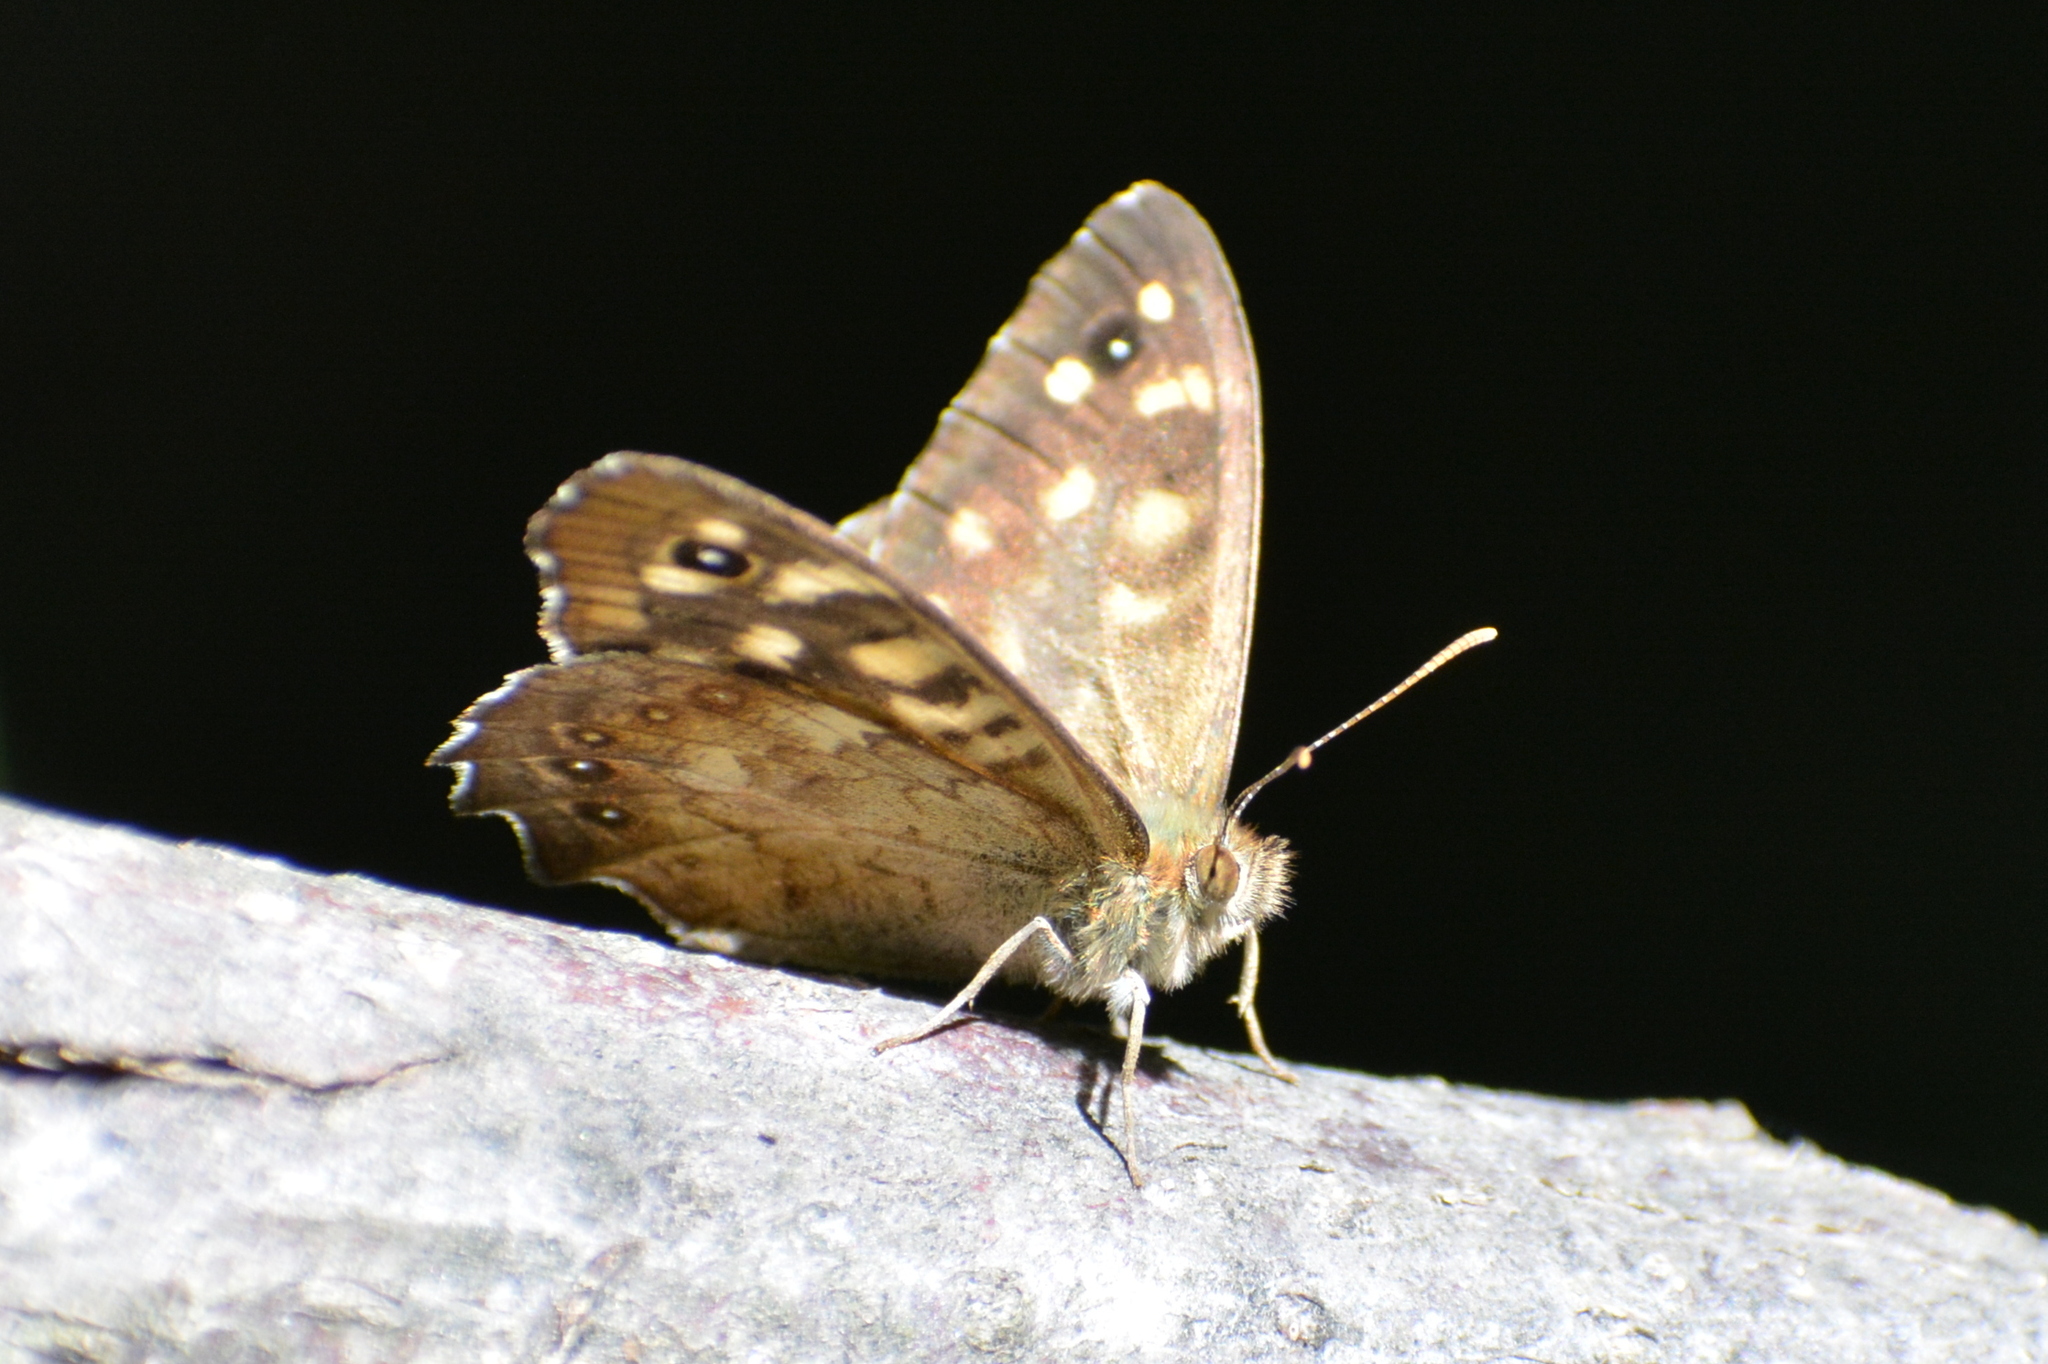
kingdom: Animalia
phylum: Arthropoda
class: Insecta
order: Lepidoptera
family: Nymphalidae
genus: Pararge
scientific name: Pararge aegeria
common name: Speckled wood
